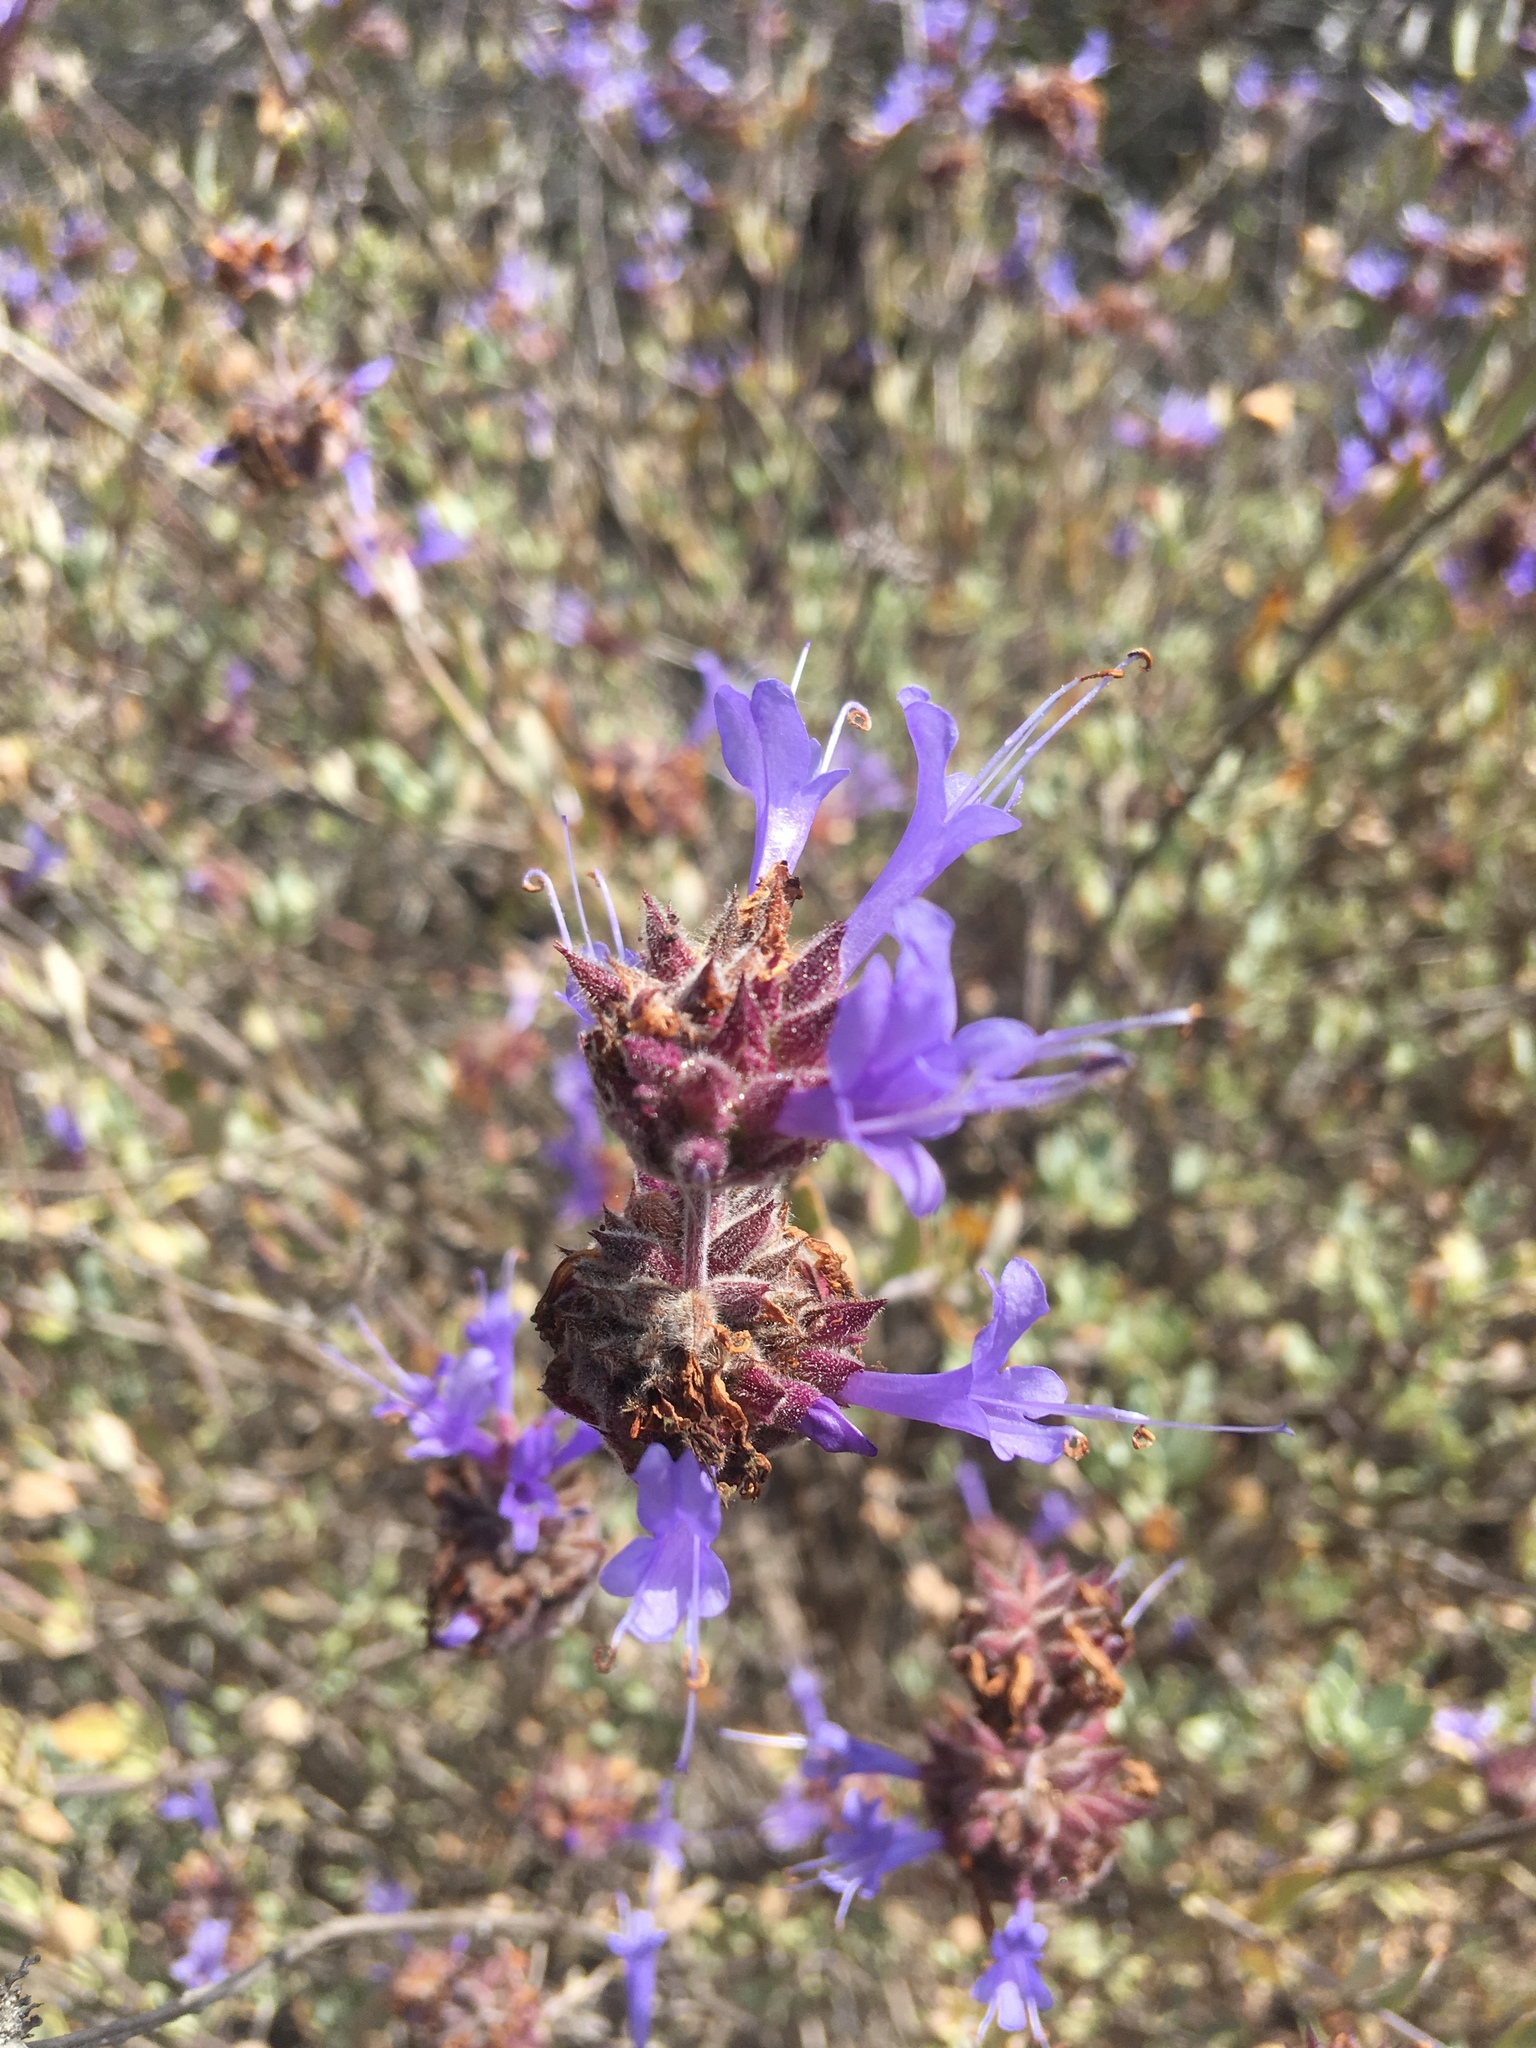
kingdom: Plantae
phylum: Tracheophyta
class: Magnoliopsida
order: Lamiales
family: Lamiaceae
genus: Salvia
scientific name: Salvia clevelandii
